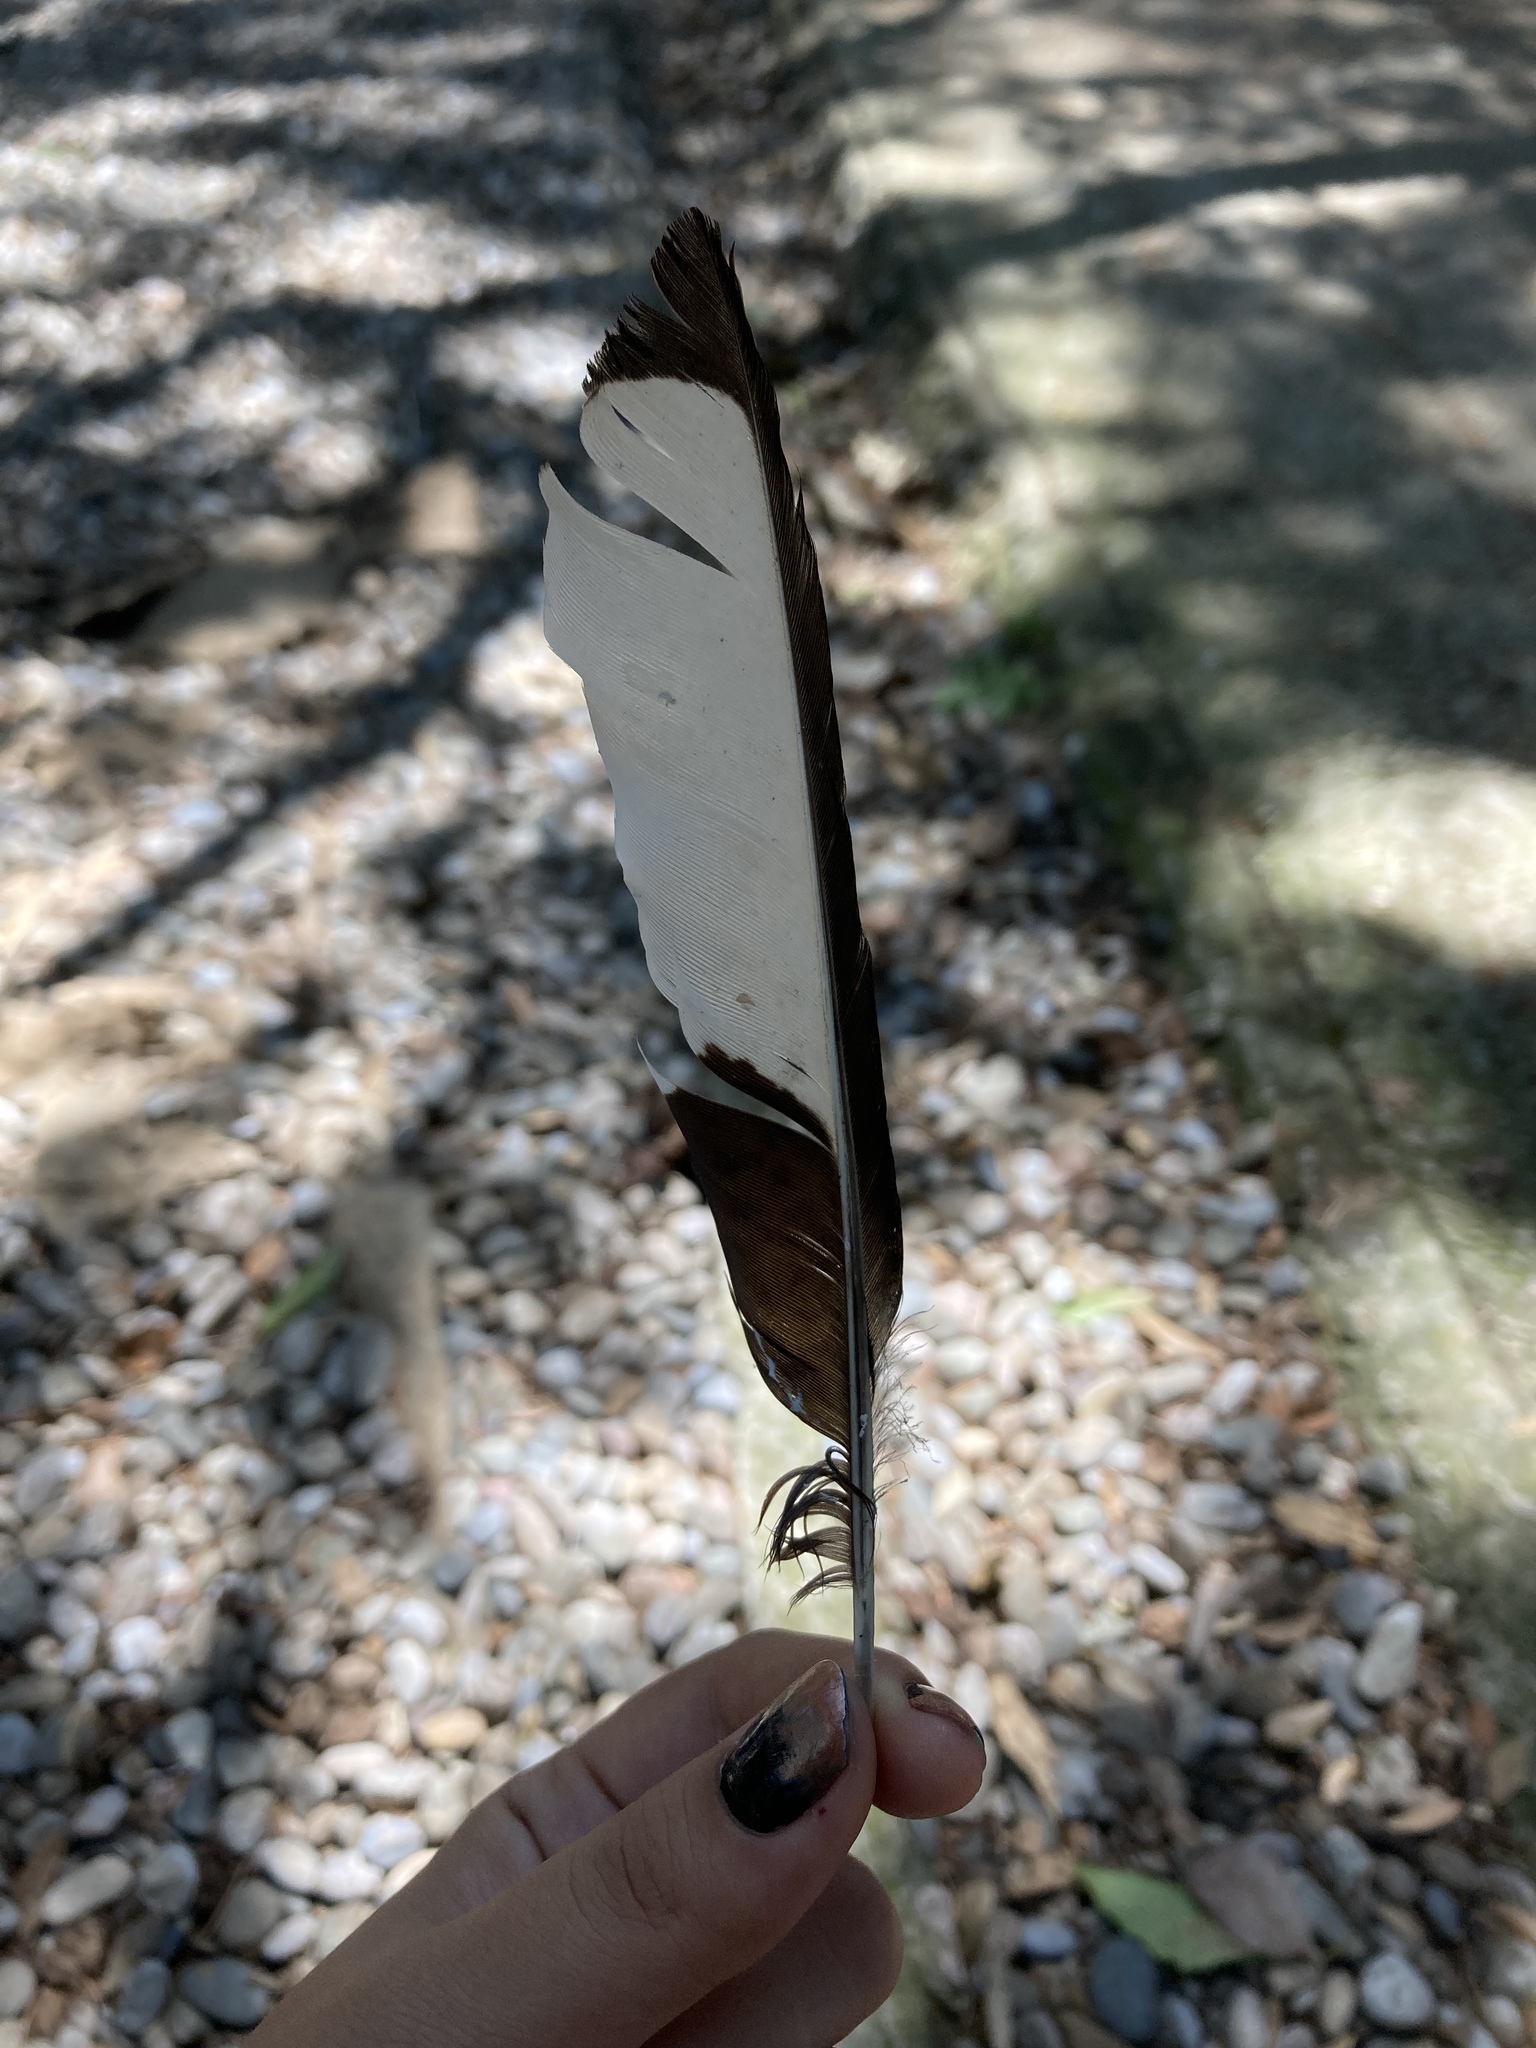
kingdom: Animalia
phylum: Chordata
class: Aves
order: Passeriformes
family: Corvidae
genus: Pica
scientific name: Pica pica
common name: Eurasian magpie
